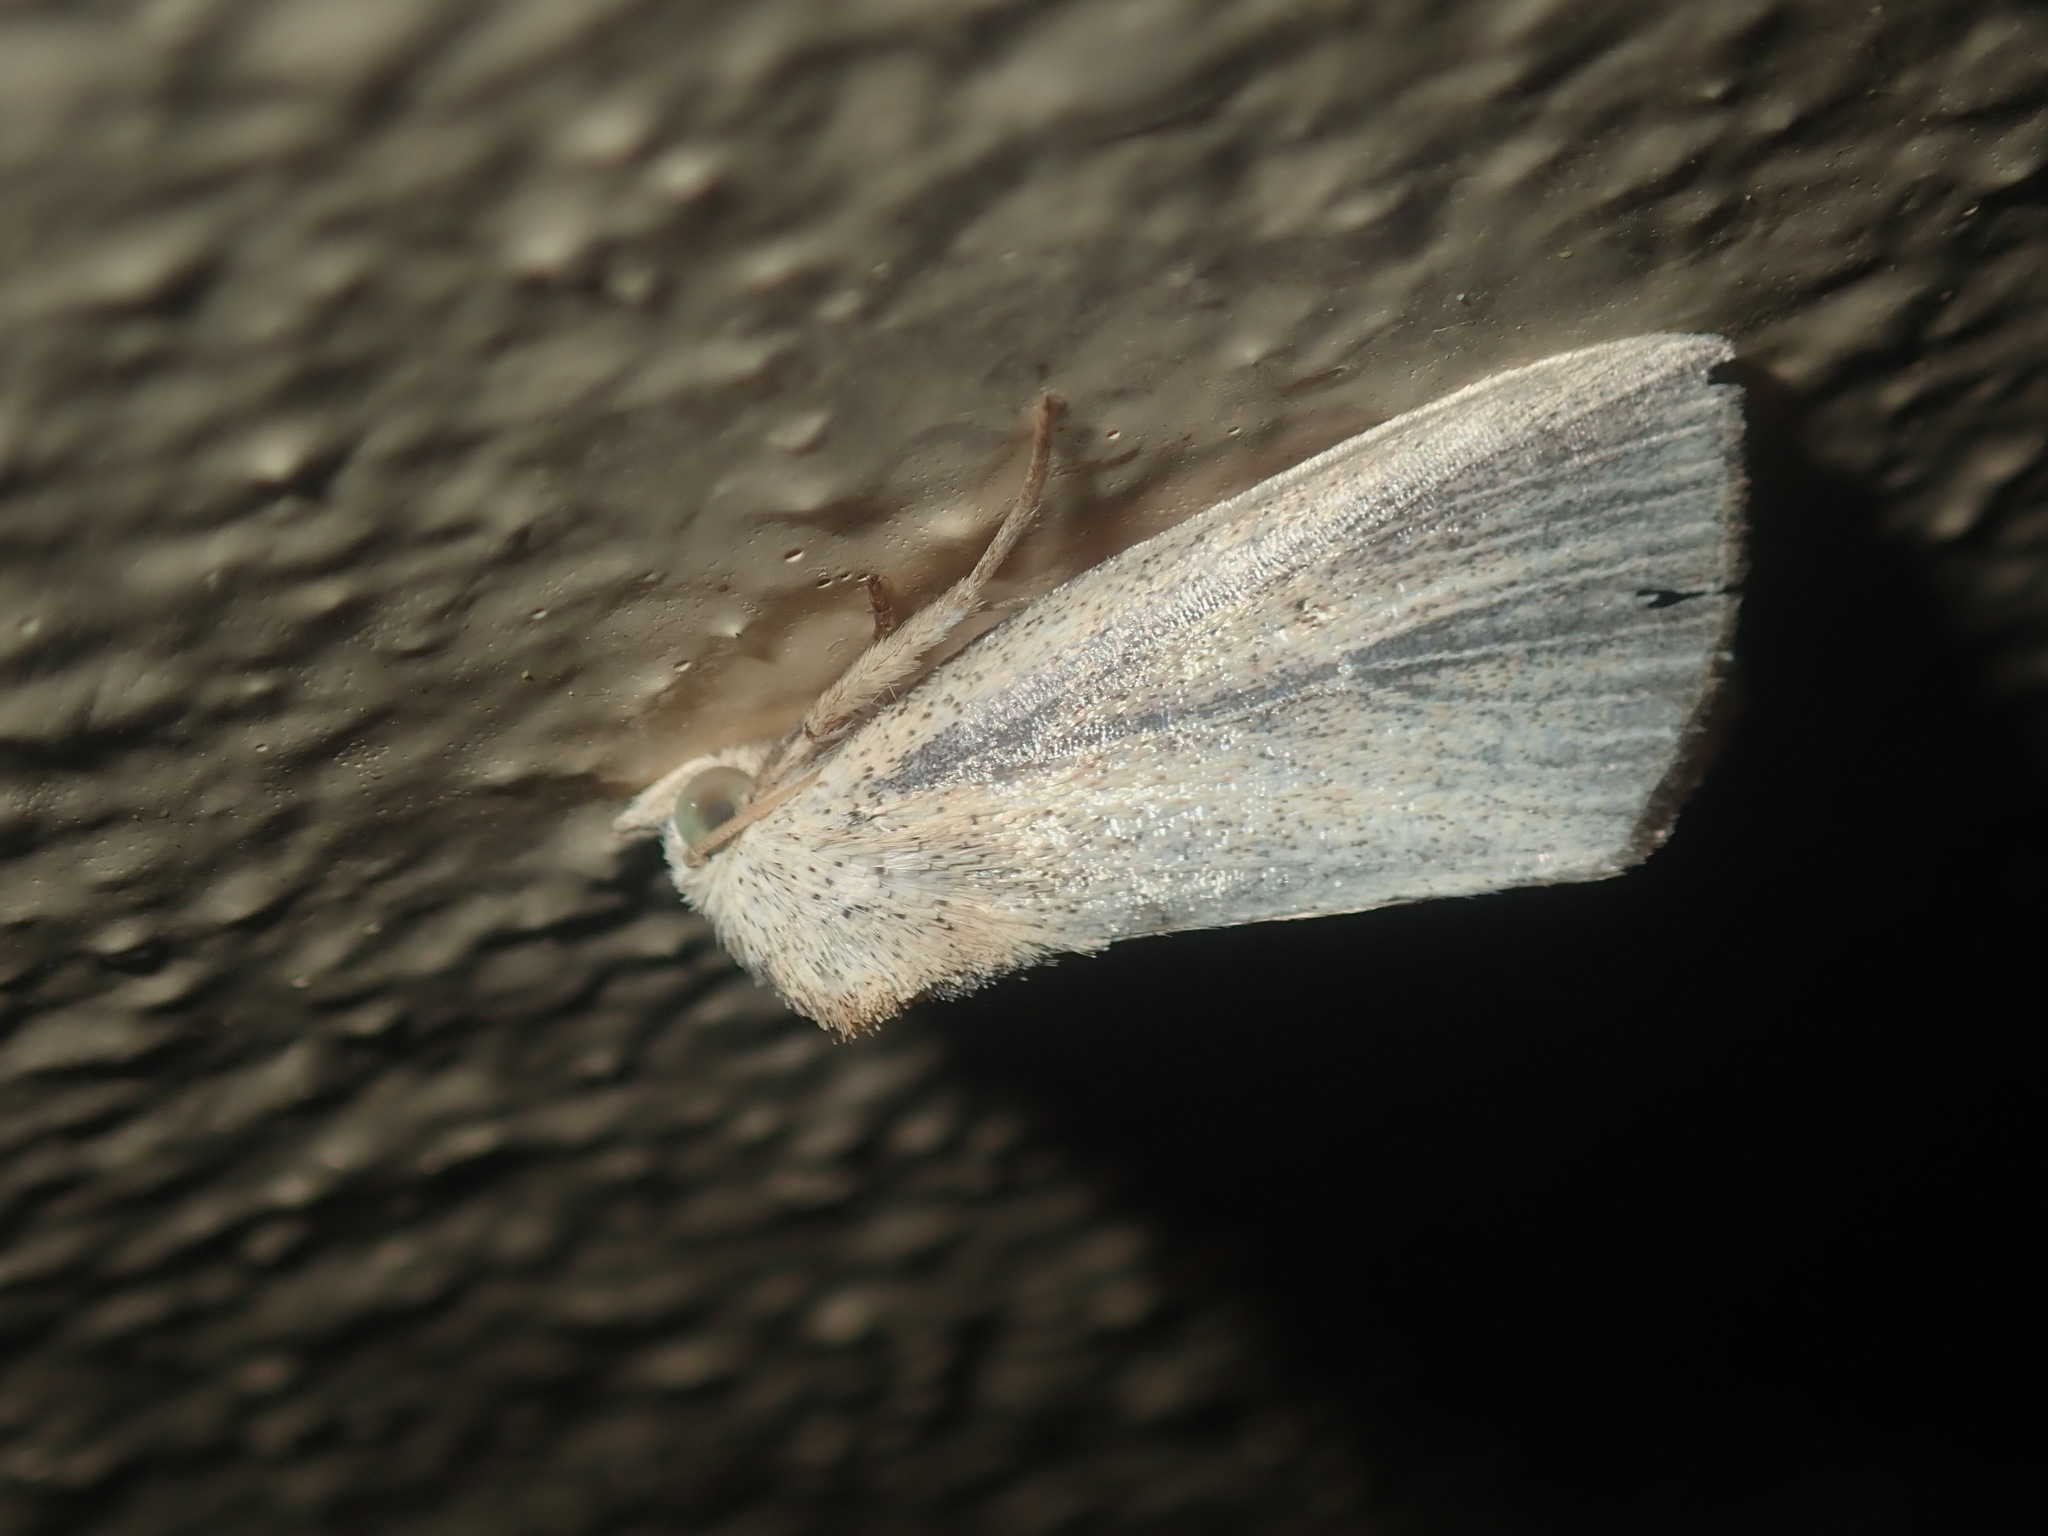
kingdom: Animalia
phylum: Arthropoda
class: Insecta
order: Lepidoptera
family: Noctuidae
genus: Lophocalama
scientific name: Lophocalama neuritis
